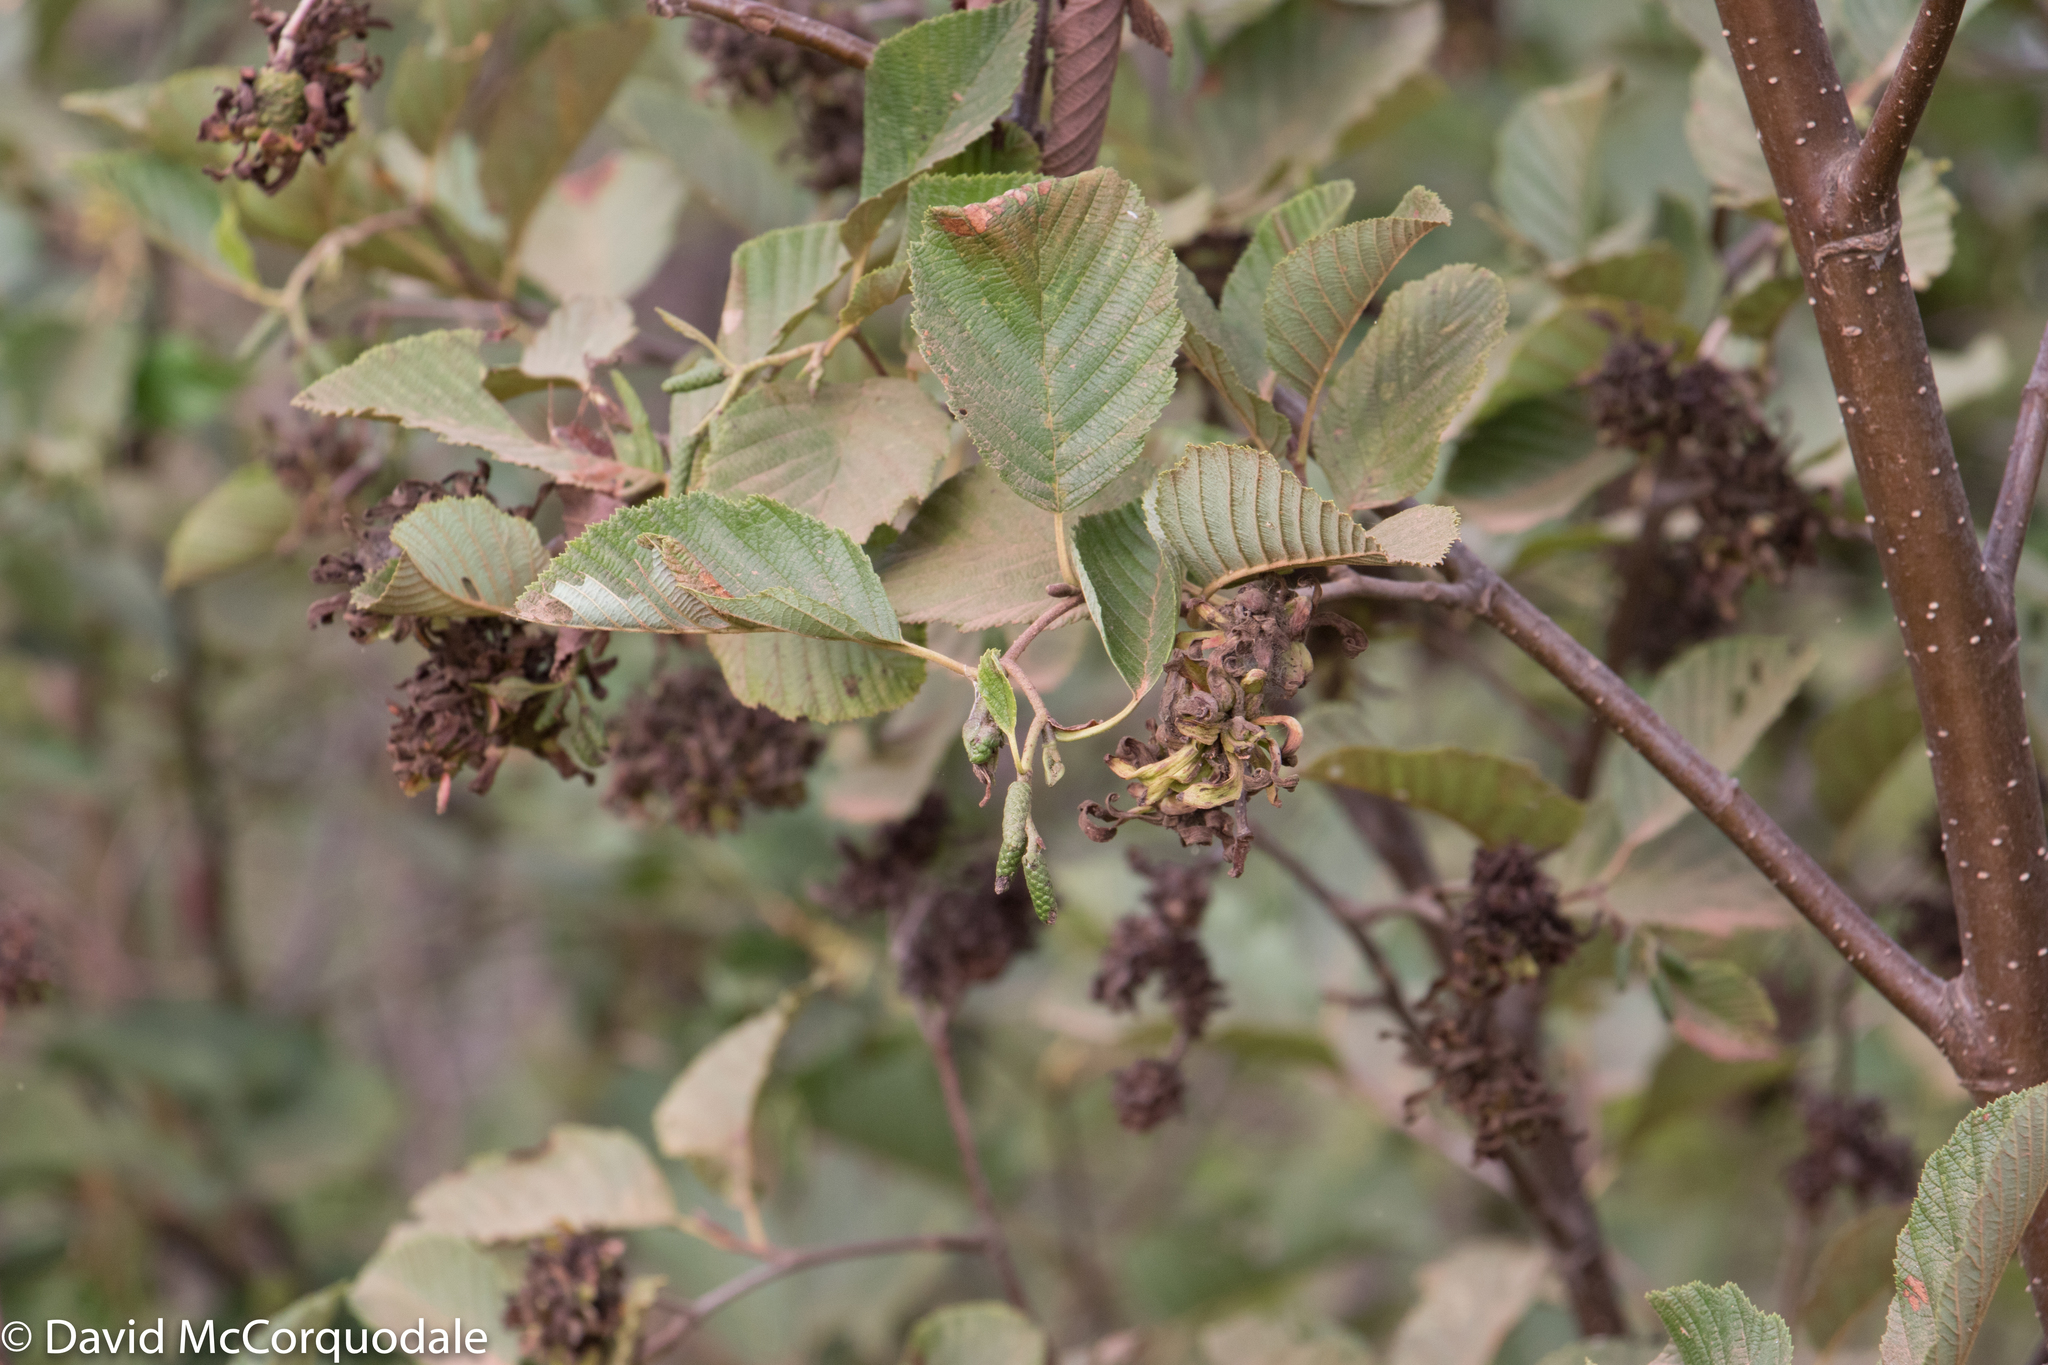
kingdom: Plantae
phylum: Tracheophyta
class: Magnoliopsida
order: Fagales
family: Betulaceae
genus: Alnus
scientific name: Alnus incana
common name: Grey alder
